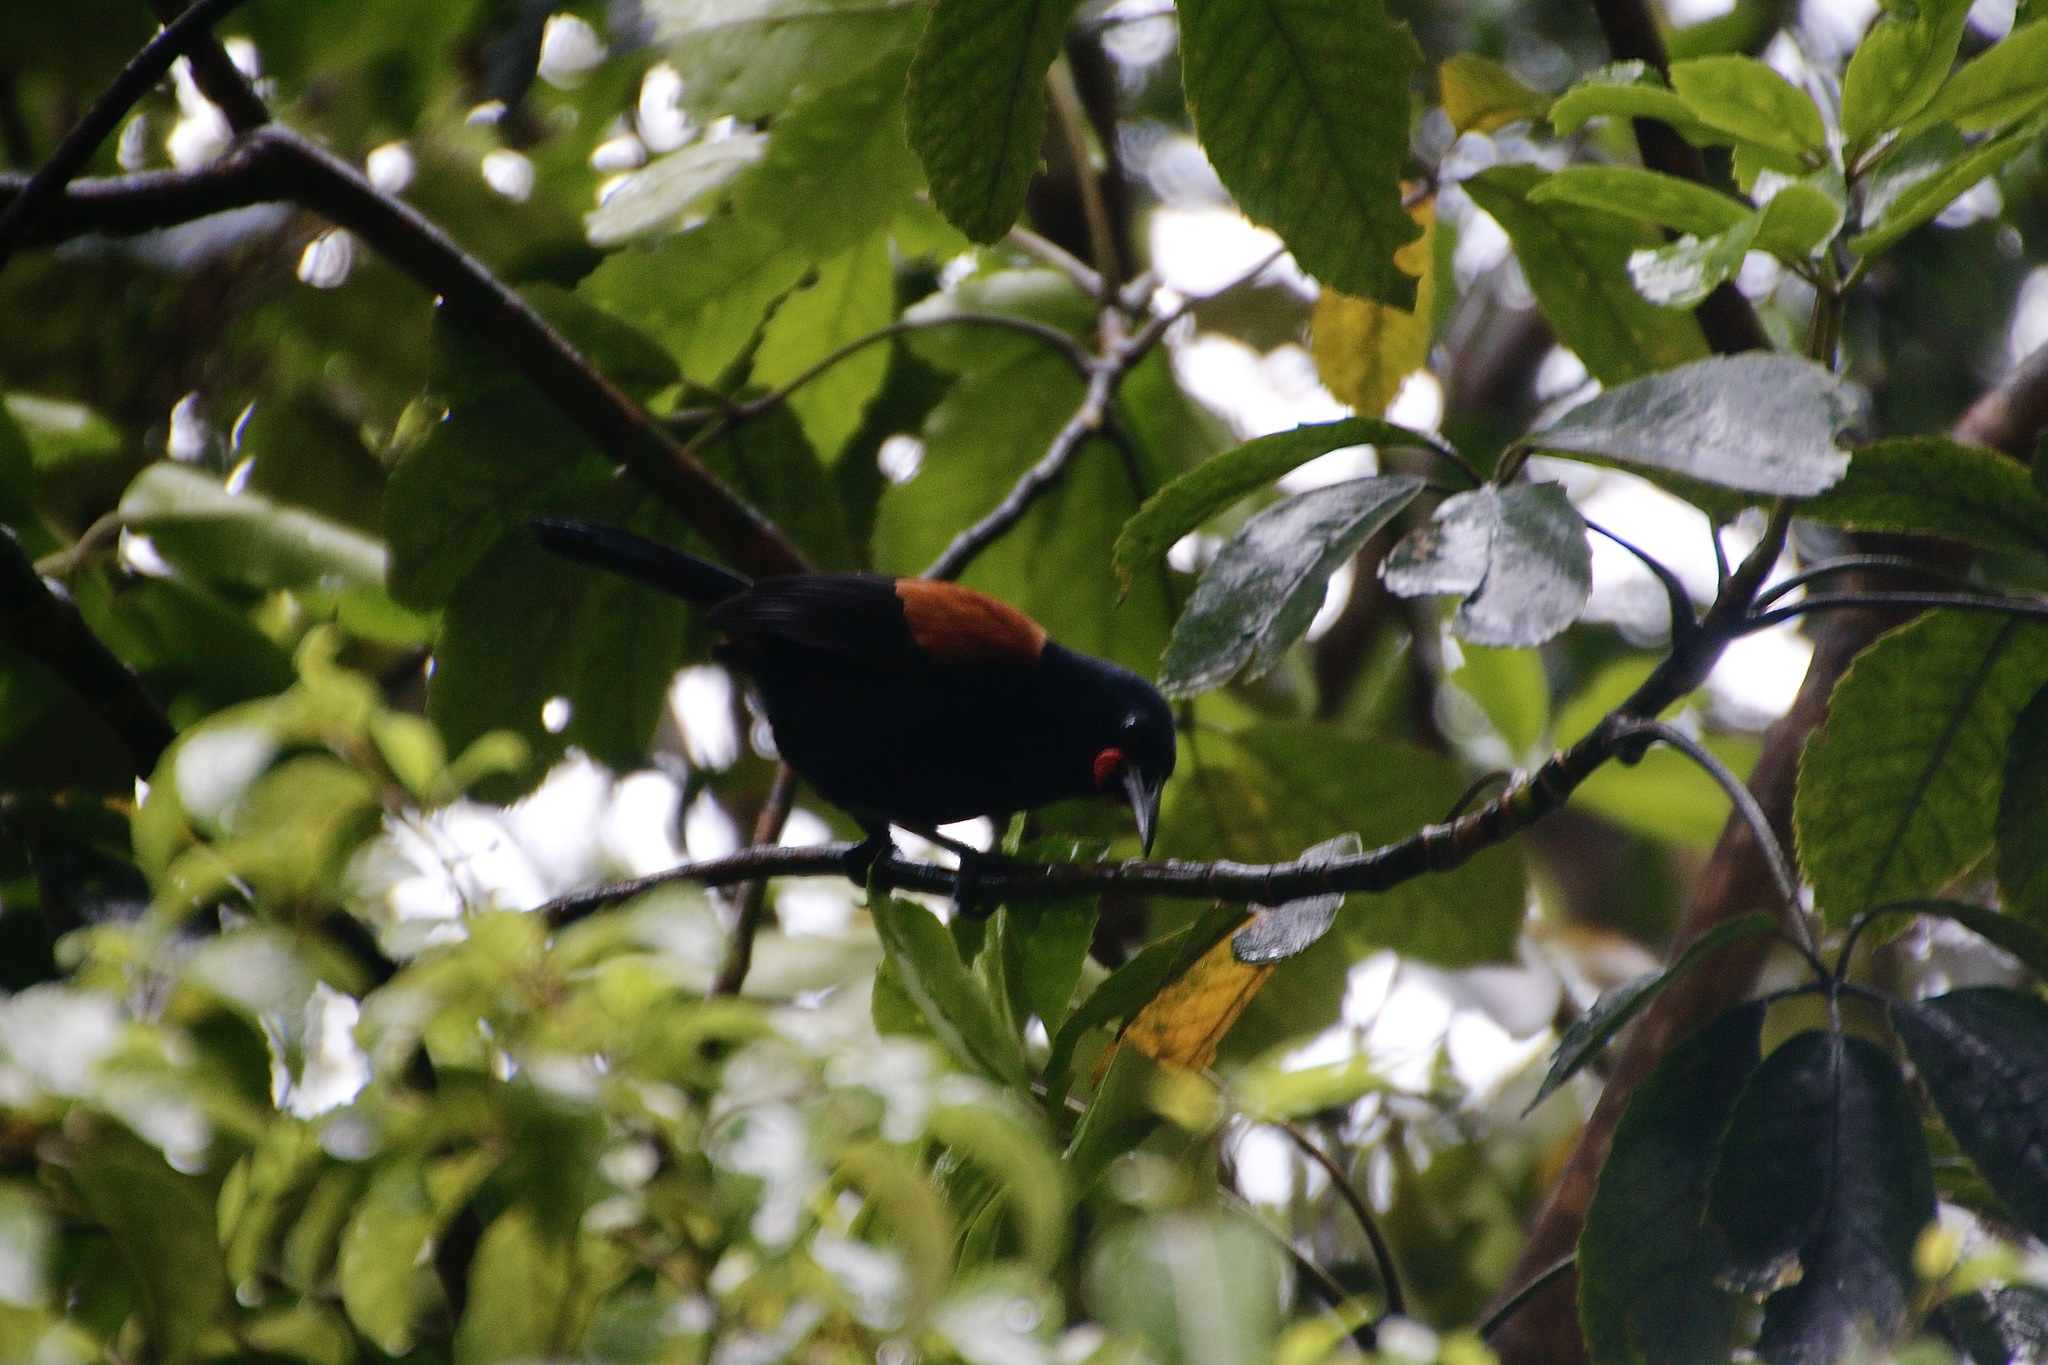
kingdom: Animalia
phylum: Chordata
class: Aves
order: Passeriformes
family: Callaeatidae
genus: Philesturnus
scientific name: Philesturnus carunculatus
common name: South island saddleback
